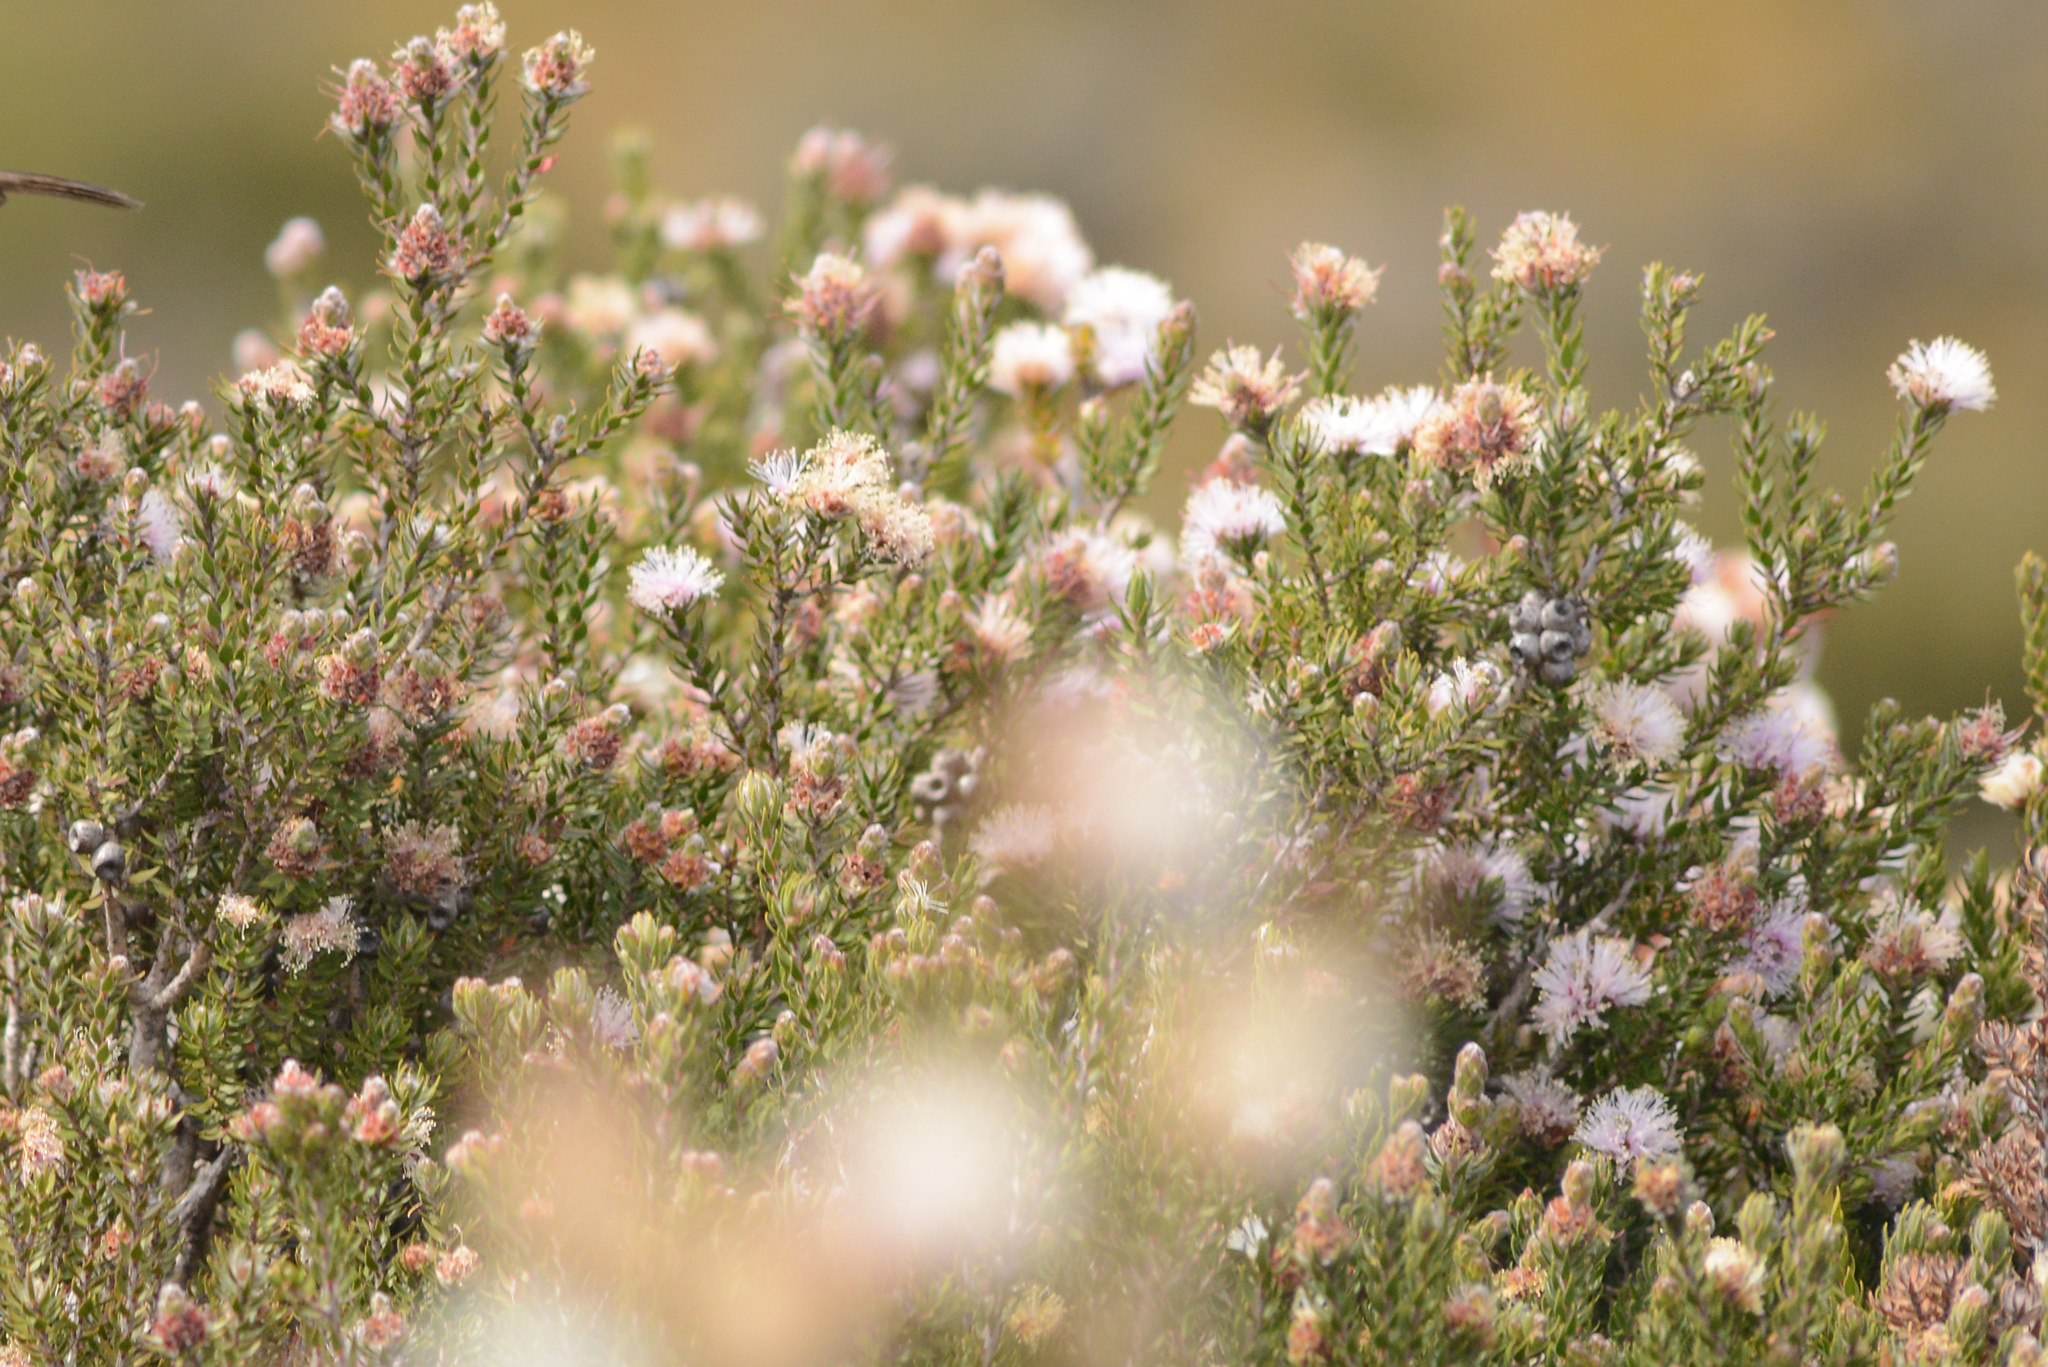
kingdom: Plantae
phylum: Tracheophyta
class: Magnoliopsida
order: Myrtales
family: Myrtaceae
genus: Melaleuca
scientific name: Melaleuca squamea
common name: Swamp melaleuca
